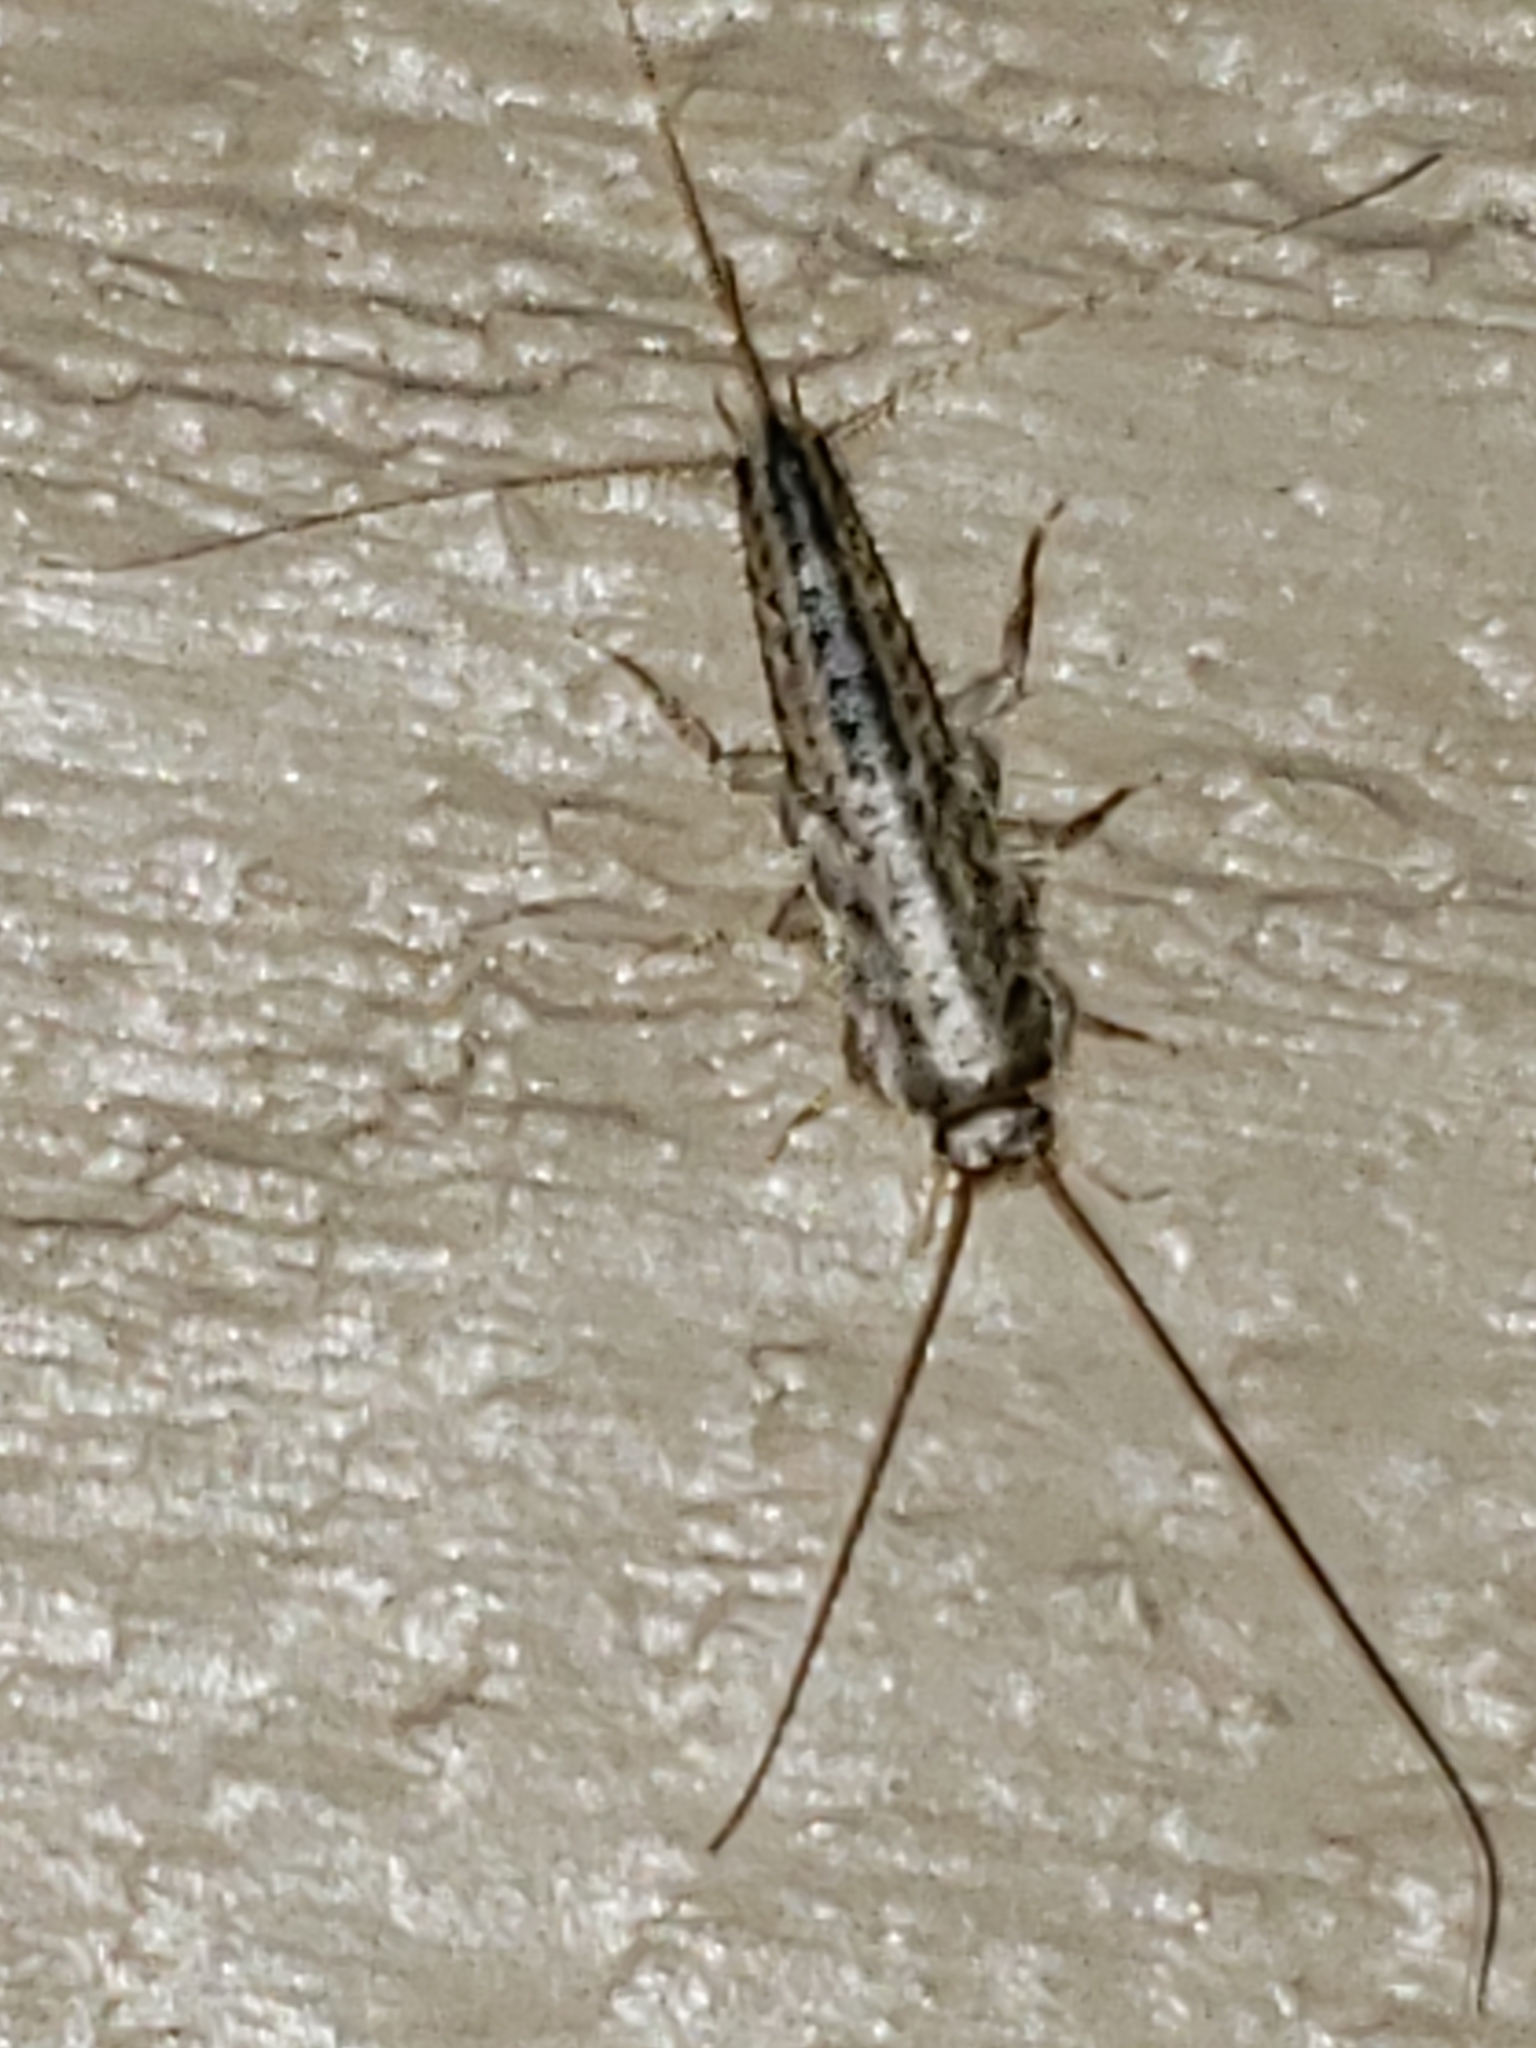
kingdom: Animalia
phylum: Arthropoda
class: Insecta
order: Zygentoma
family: Lepismatidae
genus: Ctenolepisma
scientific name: Ctenolepisma lineata
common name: Four-lined silverfish
